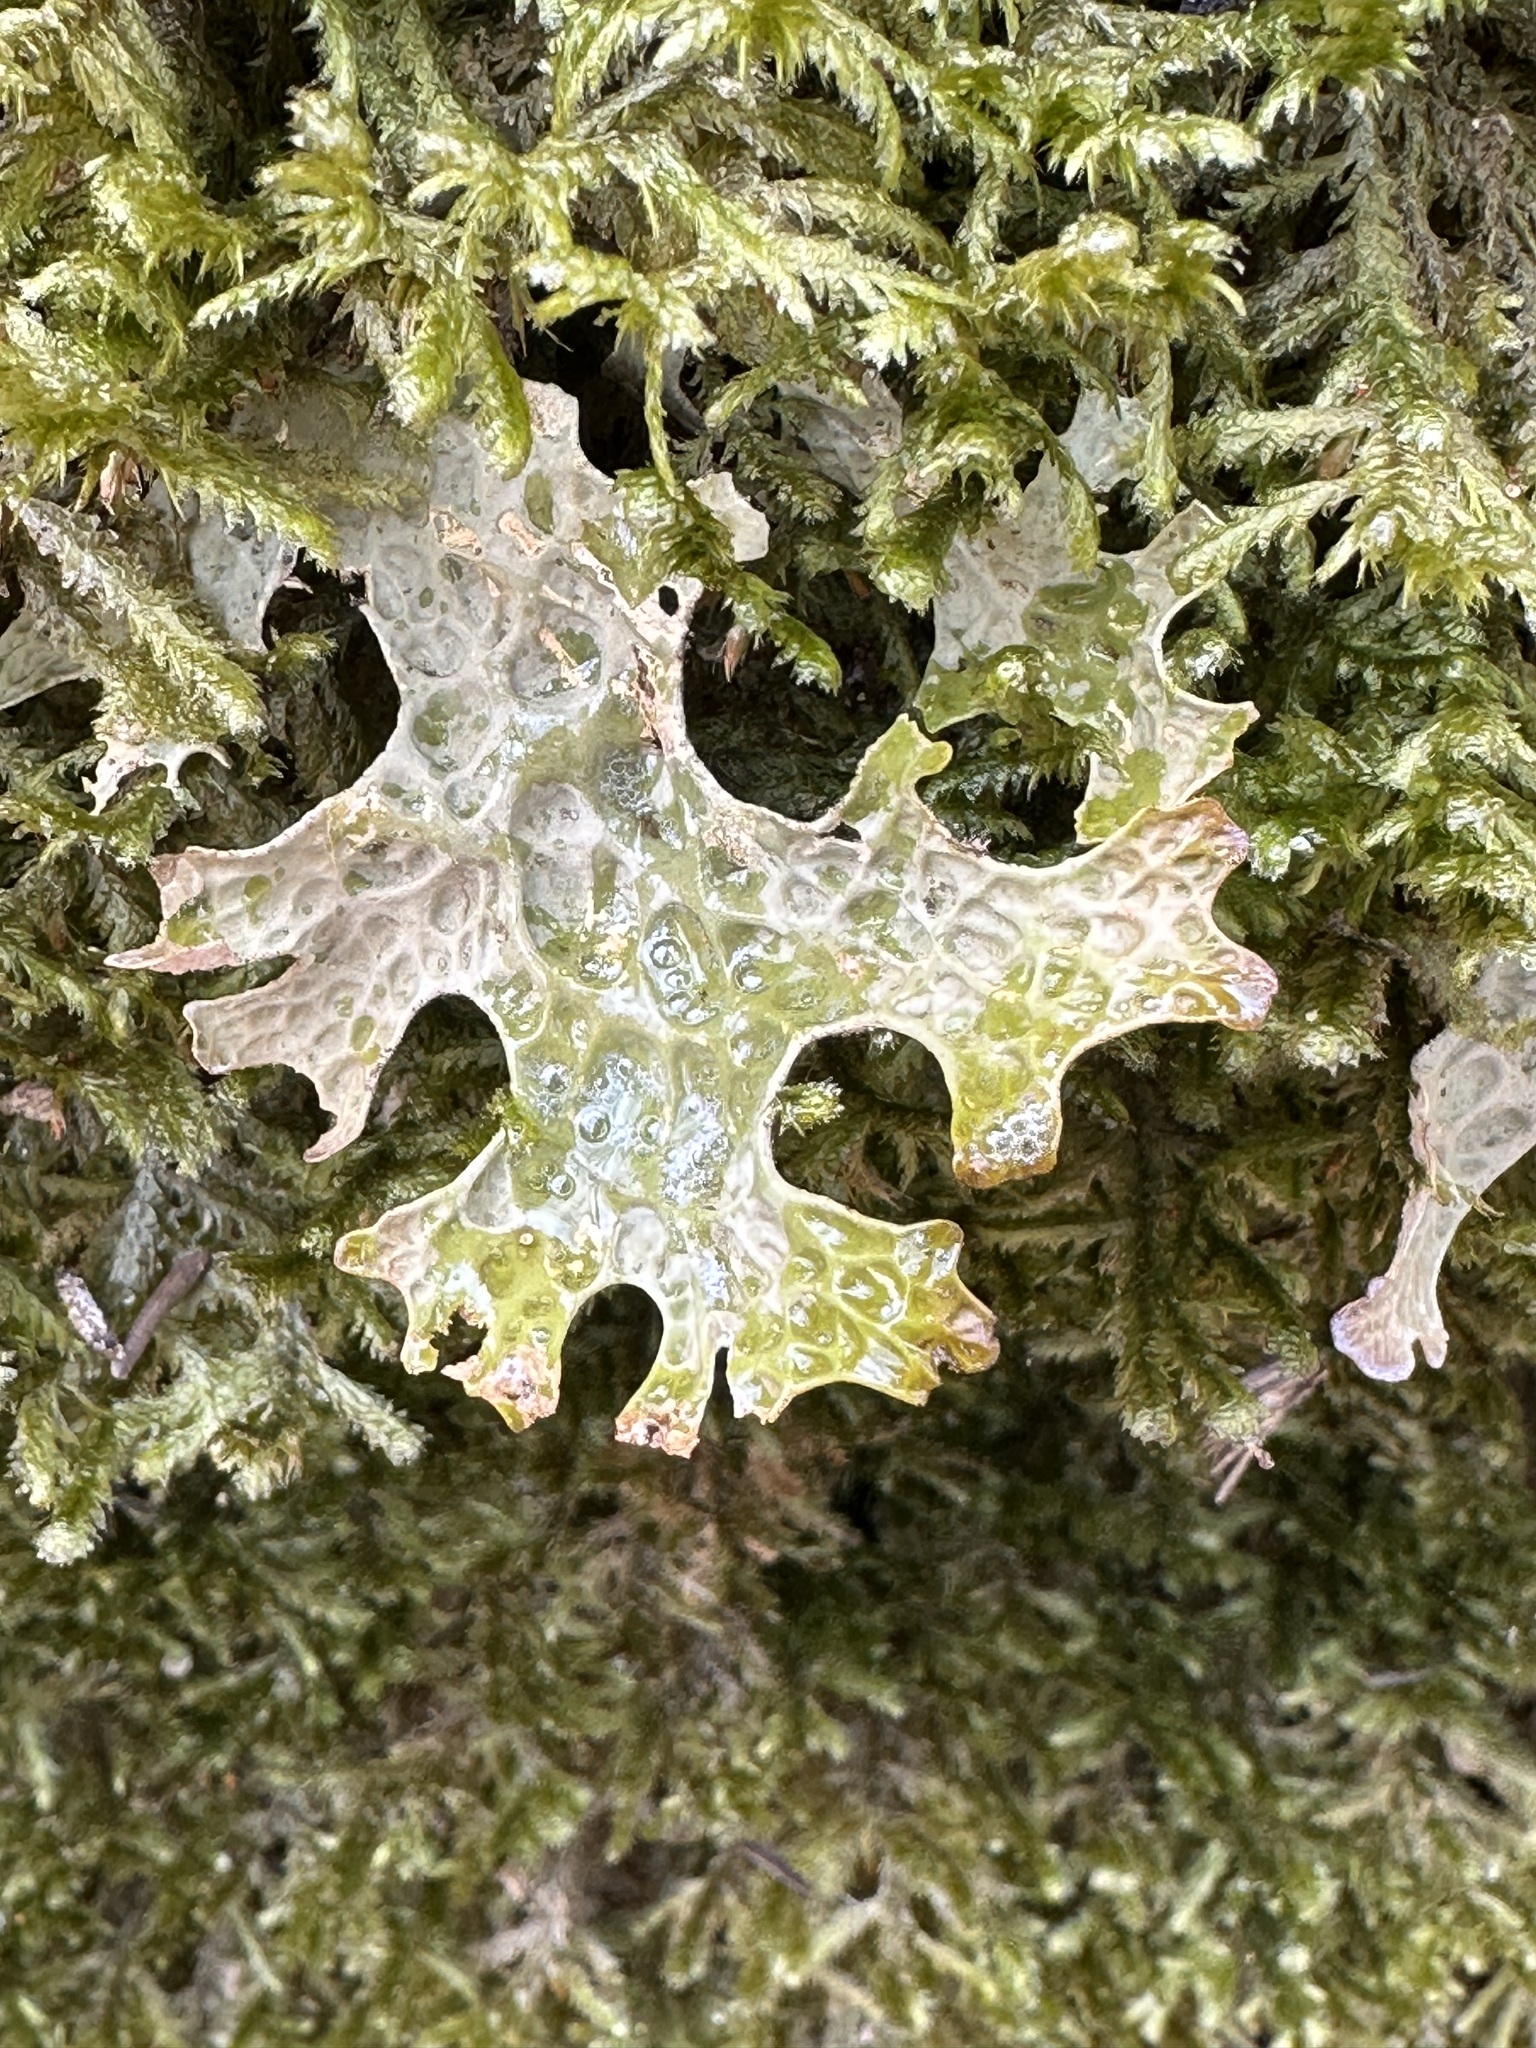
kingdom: Fungi
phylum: Ascomycota
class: Lecanoromycetes
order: Peltigerales
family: Lobariaceae
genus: Lobaria
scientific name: Lobaria pulmonaria
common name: Lungwort
